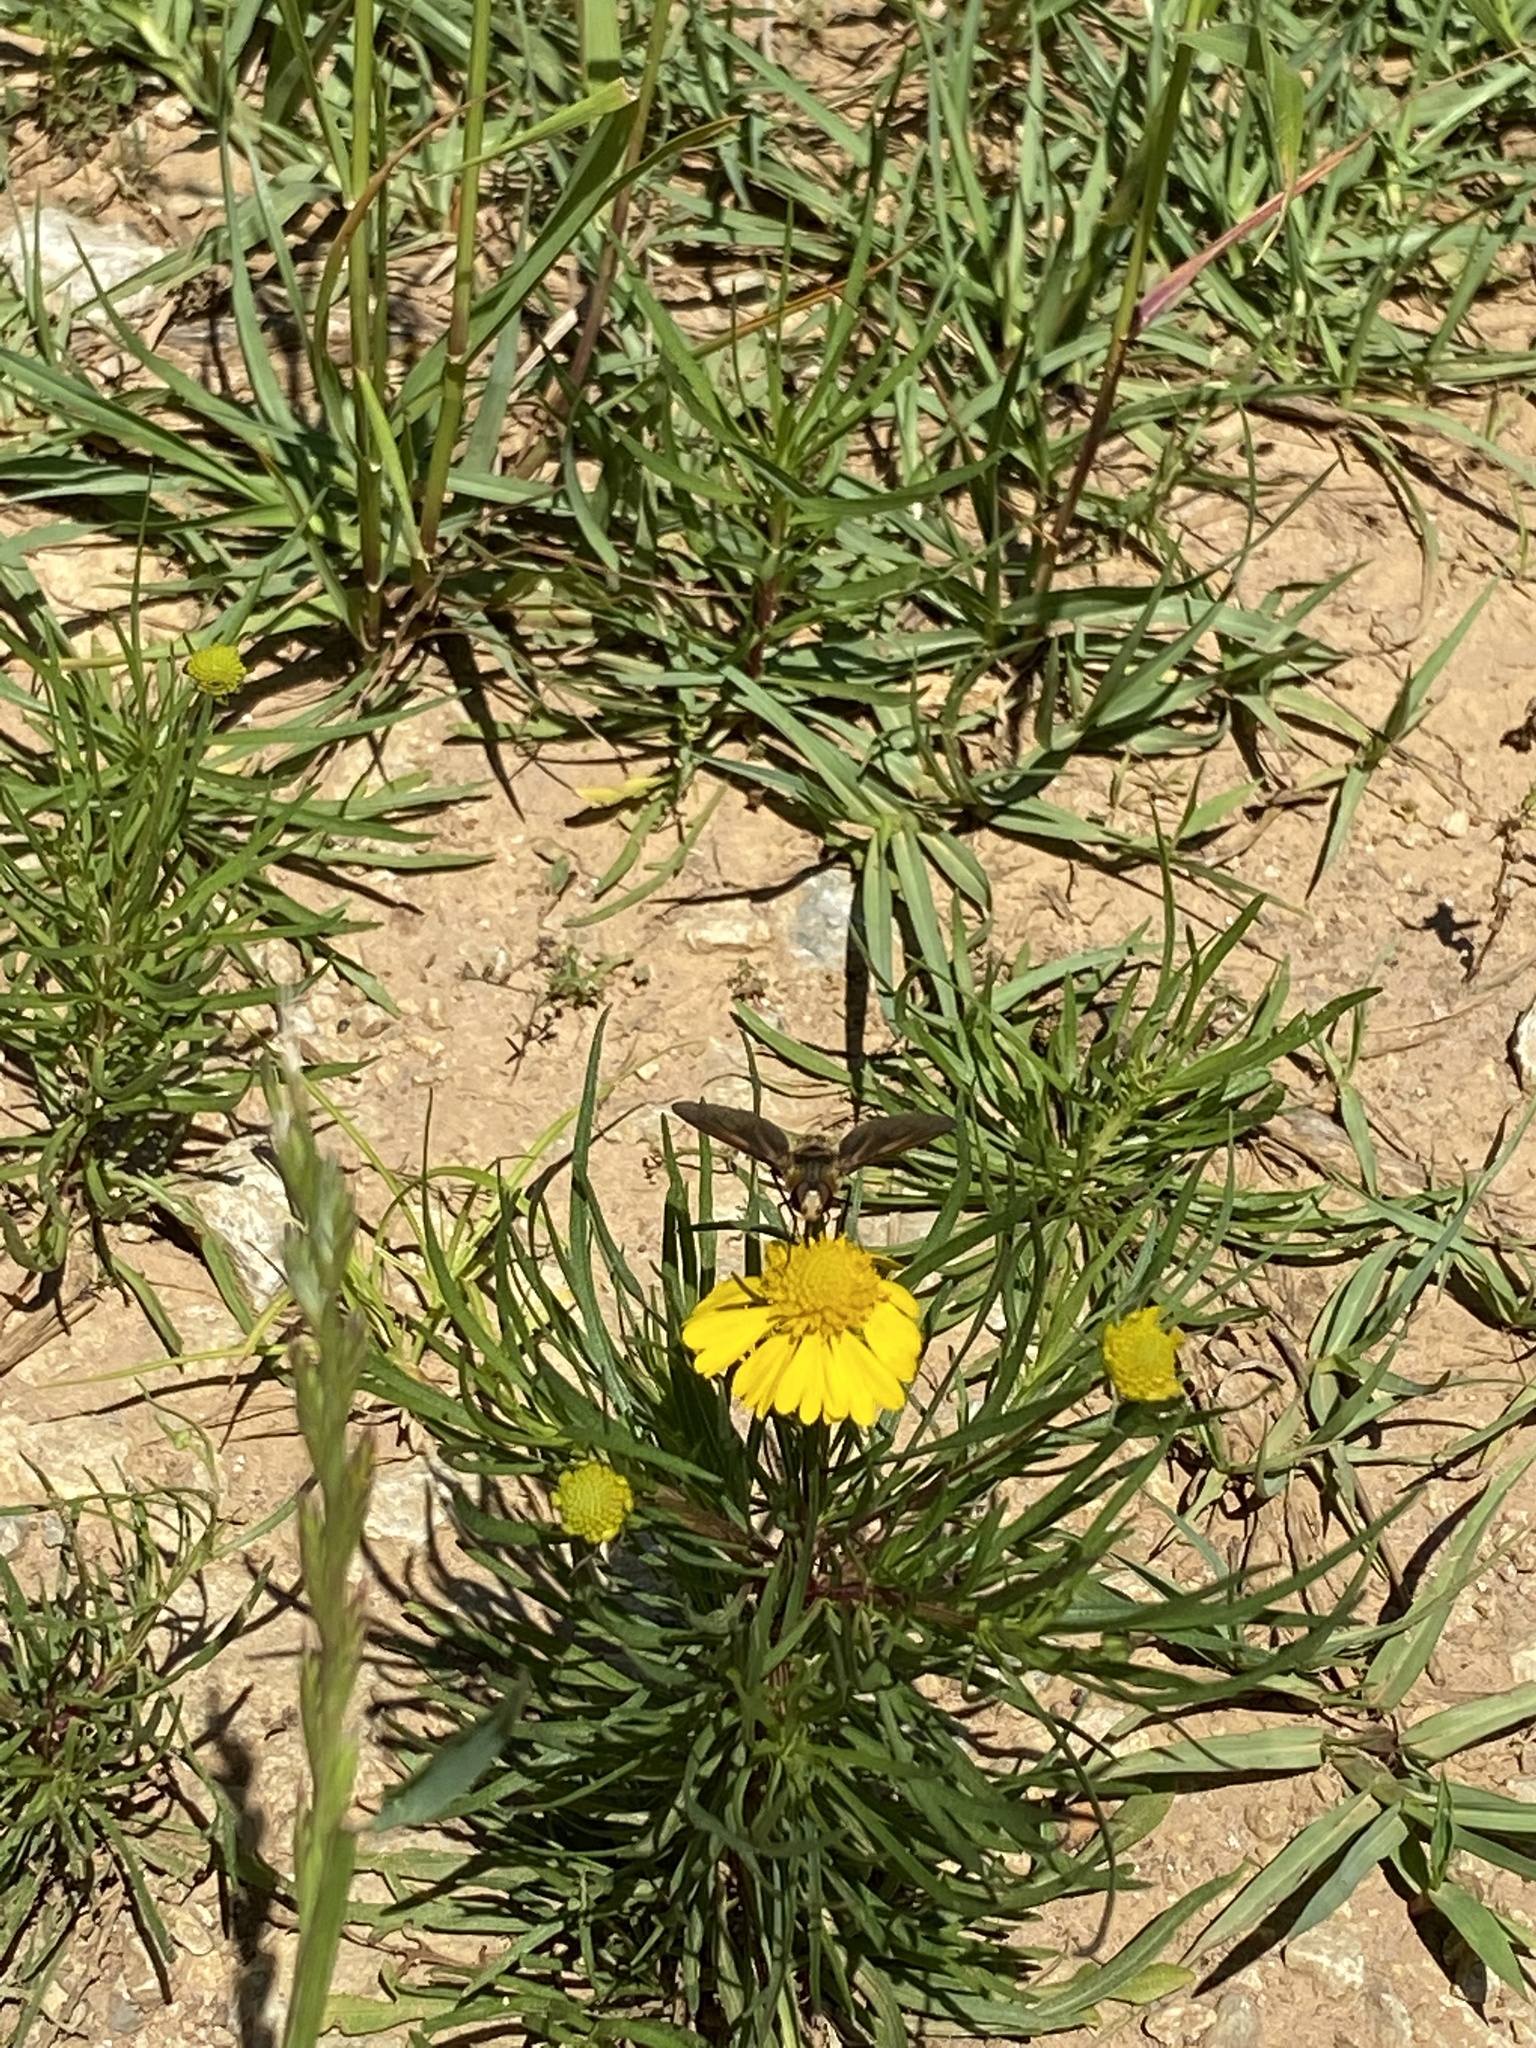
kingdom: Animalia
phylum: Arthropoda
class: Insecta
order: Diptera
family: Bombyliidae
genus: Poecilanthrax
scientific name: Poecilanthrax lucifer
